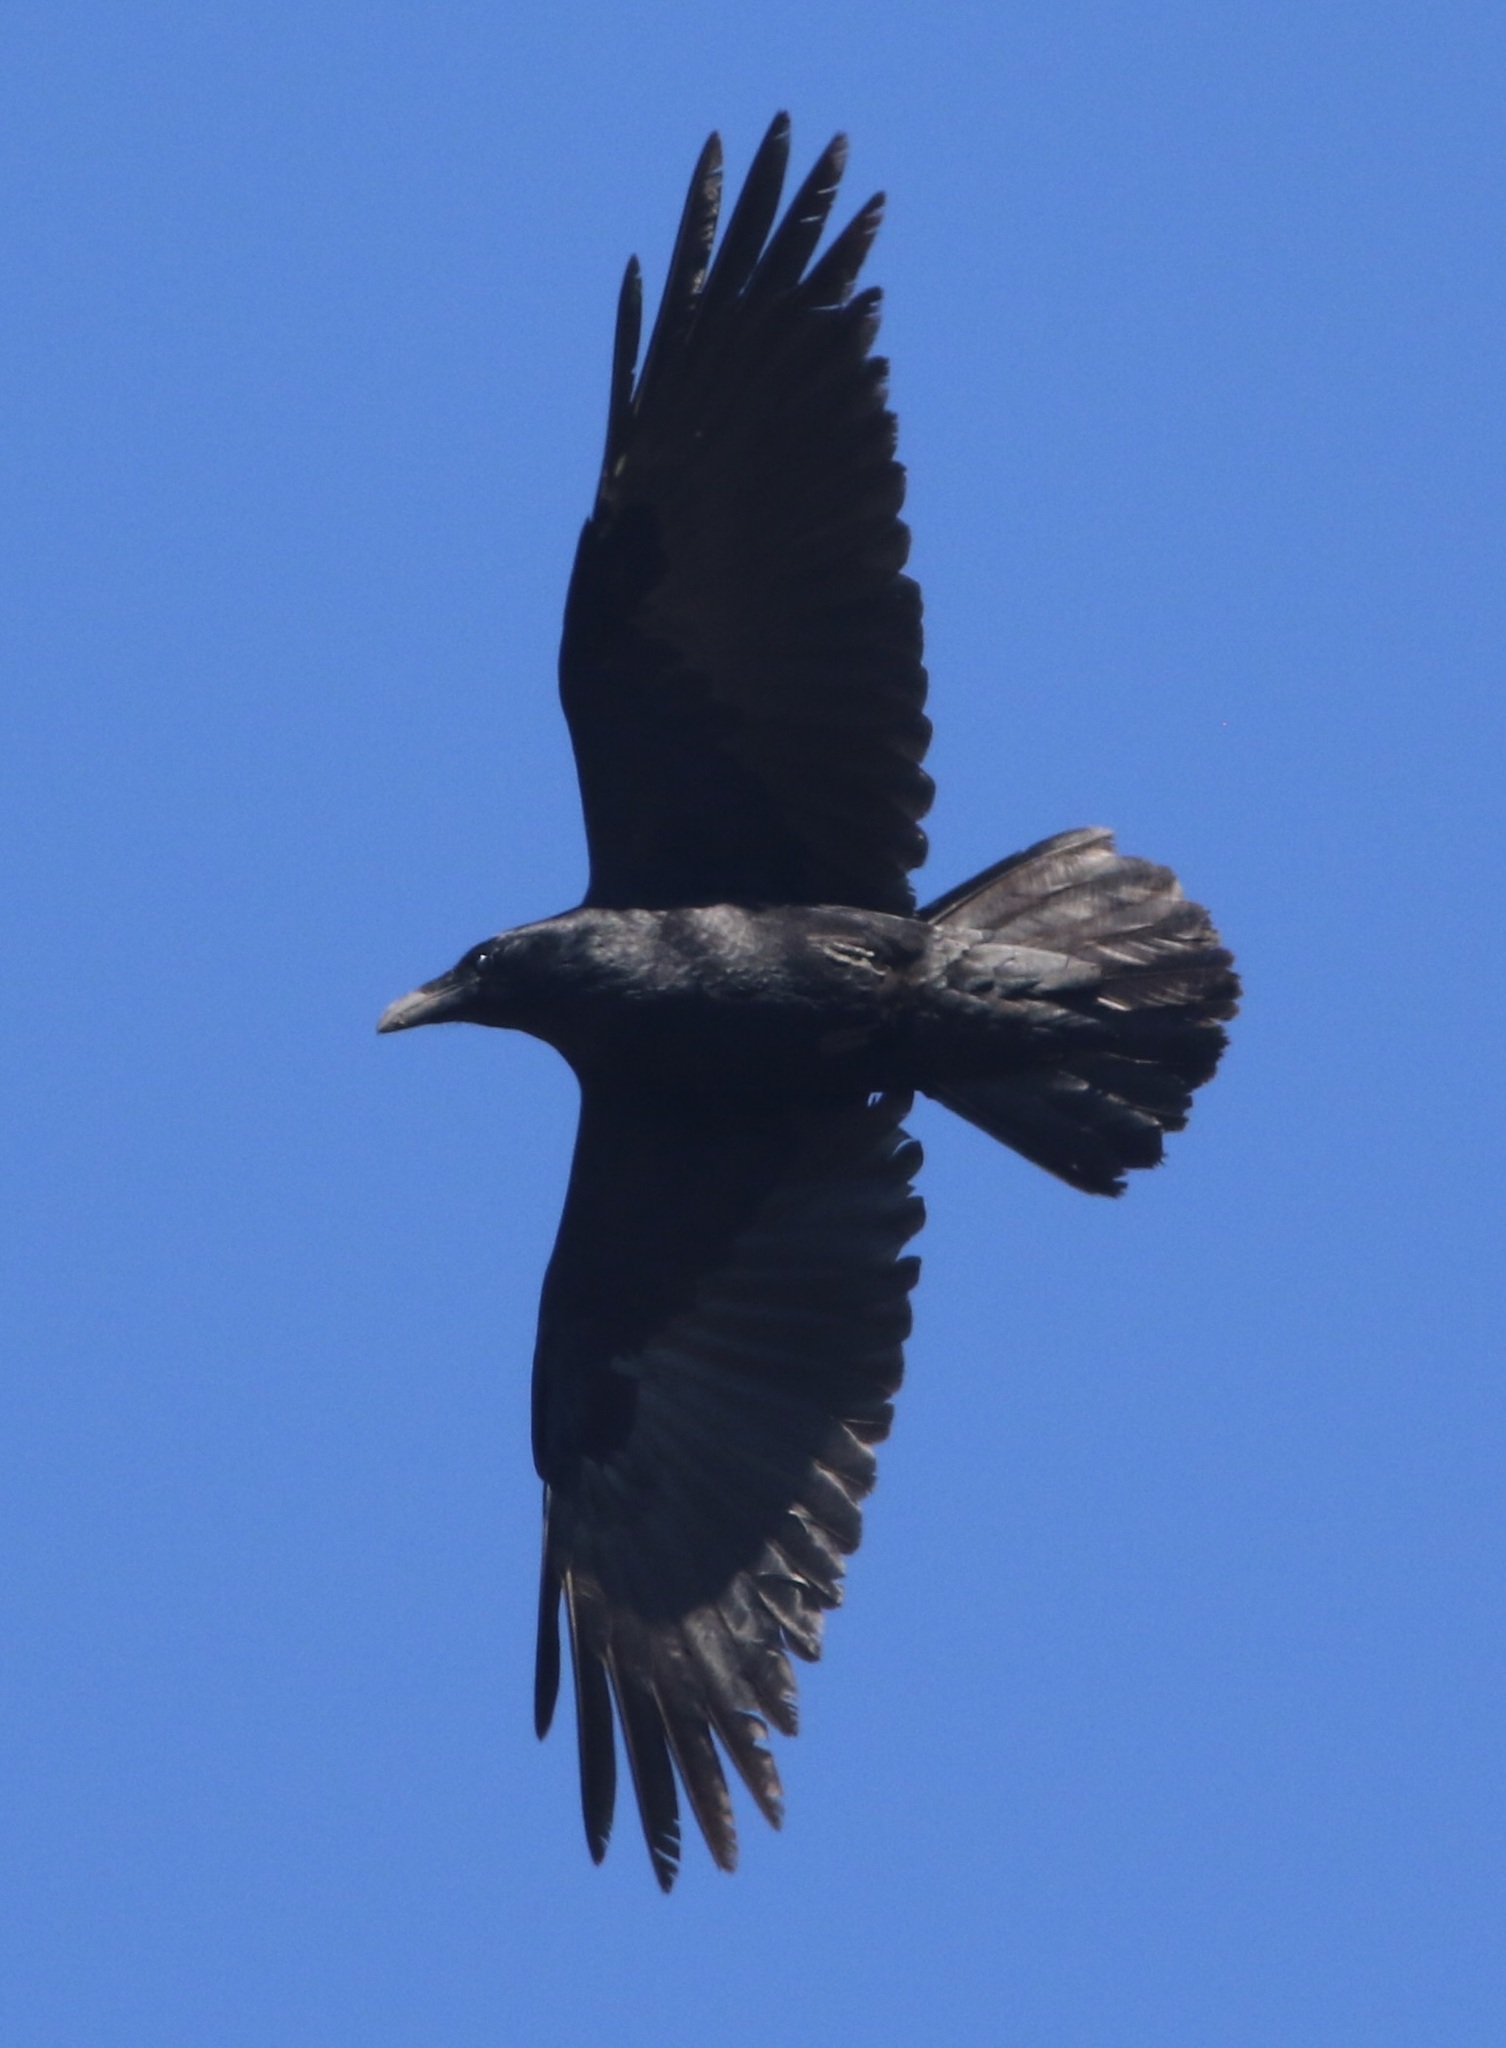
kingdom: Animalia
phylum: Chordata
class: Aves
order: Passeriformes
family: Corvidae
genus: Corvus
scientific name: Corvus corax
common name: Common raven
